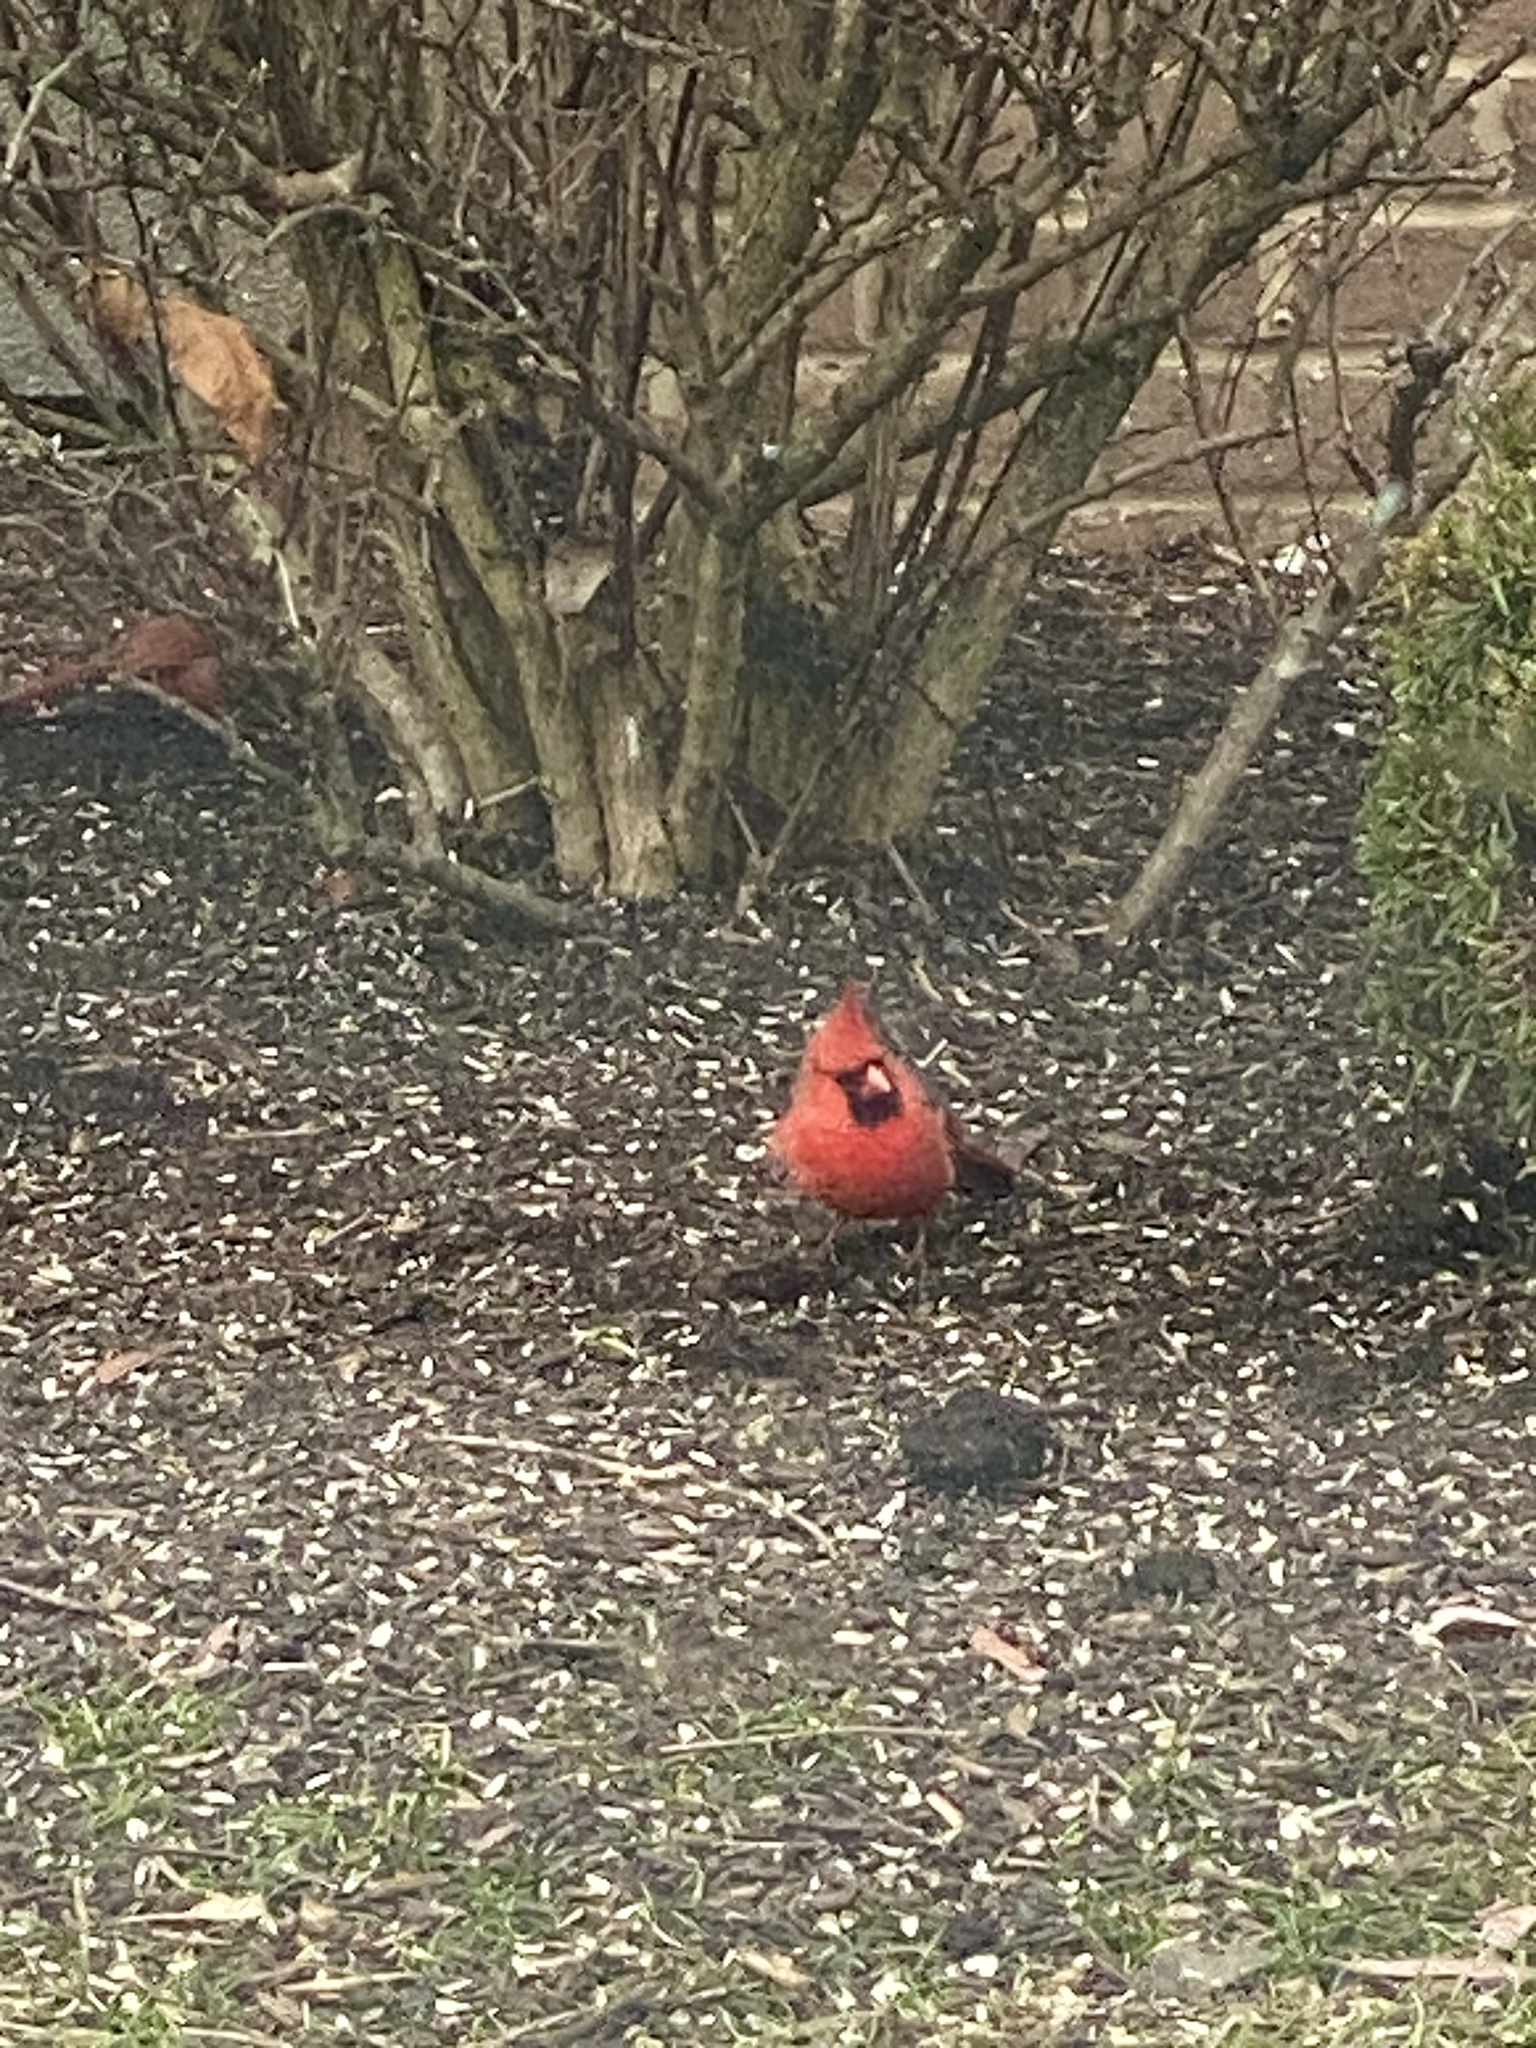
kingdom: Animalia
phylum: Chordata
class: Aves
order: Passeriformes
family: Cardinalidae
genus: Cardinalis
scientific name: Cardinalis cardinalis
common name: Northern cardinal
